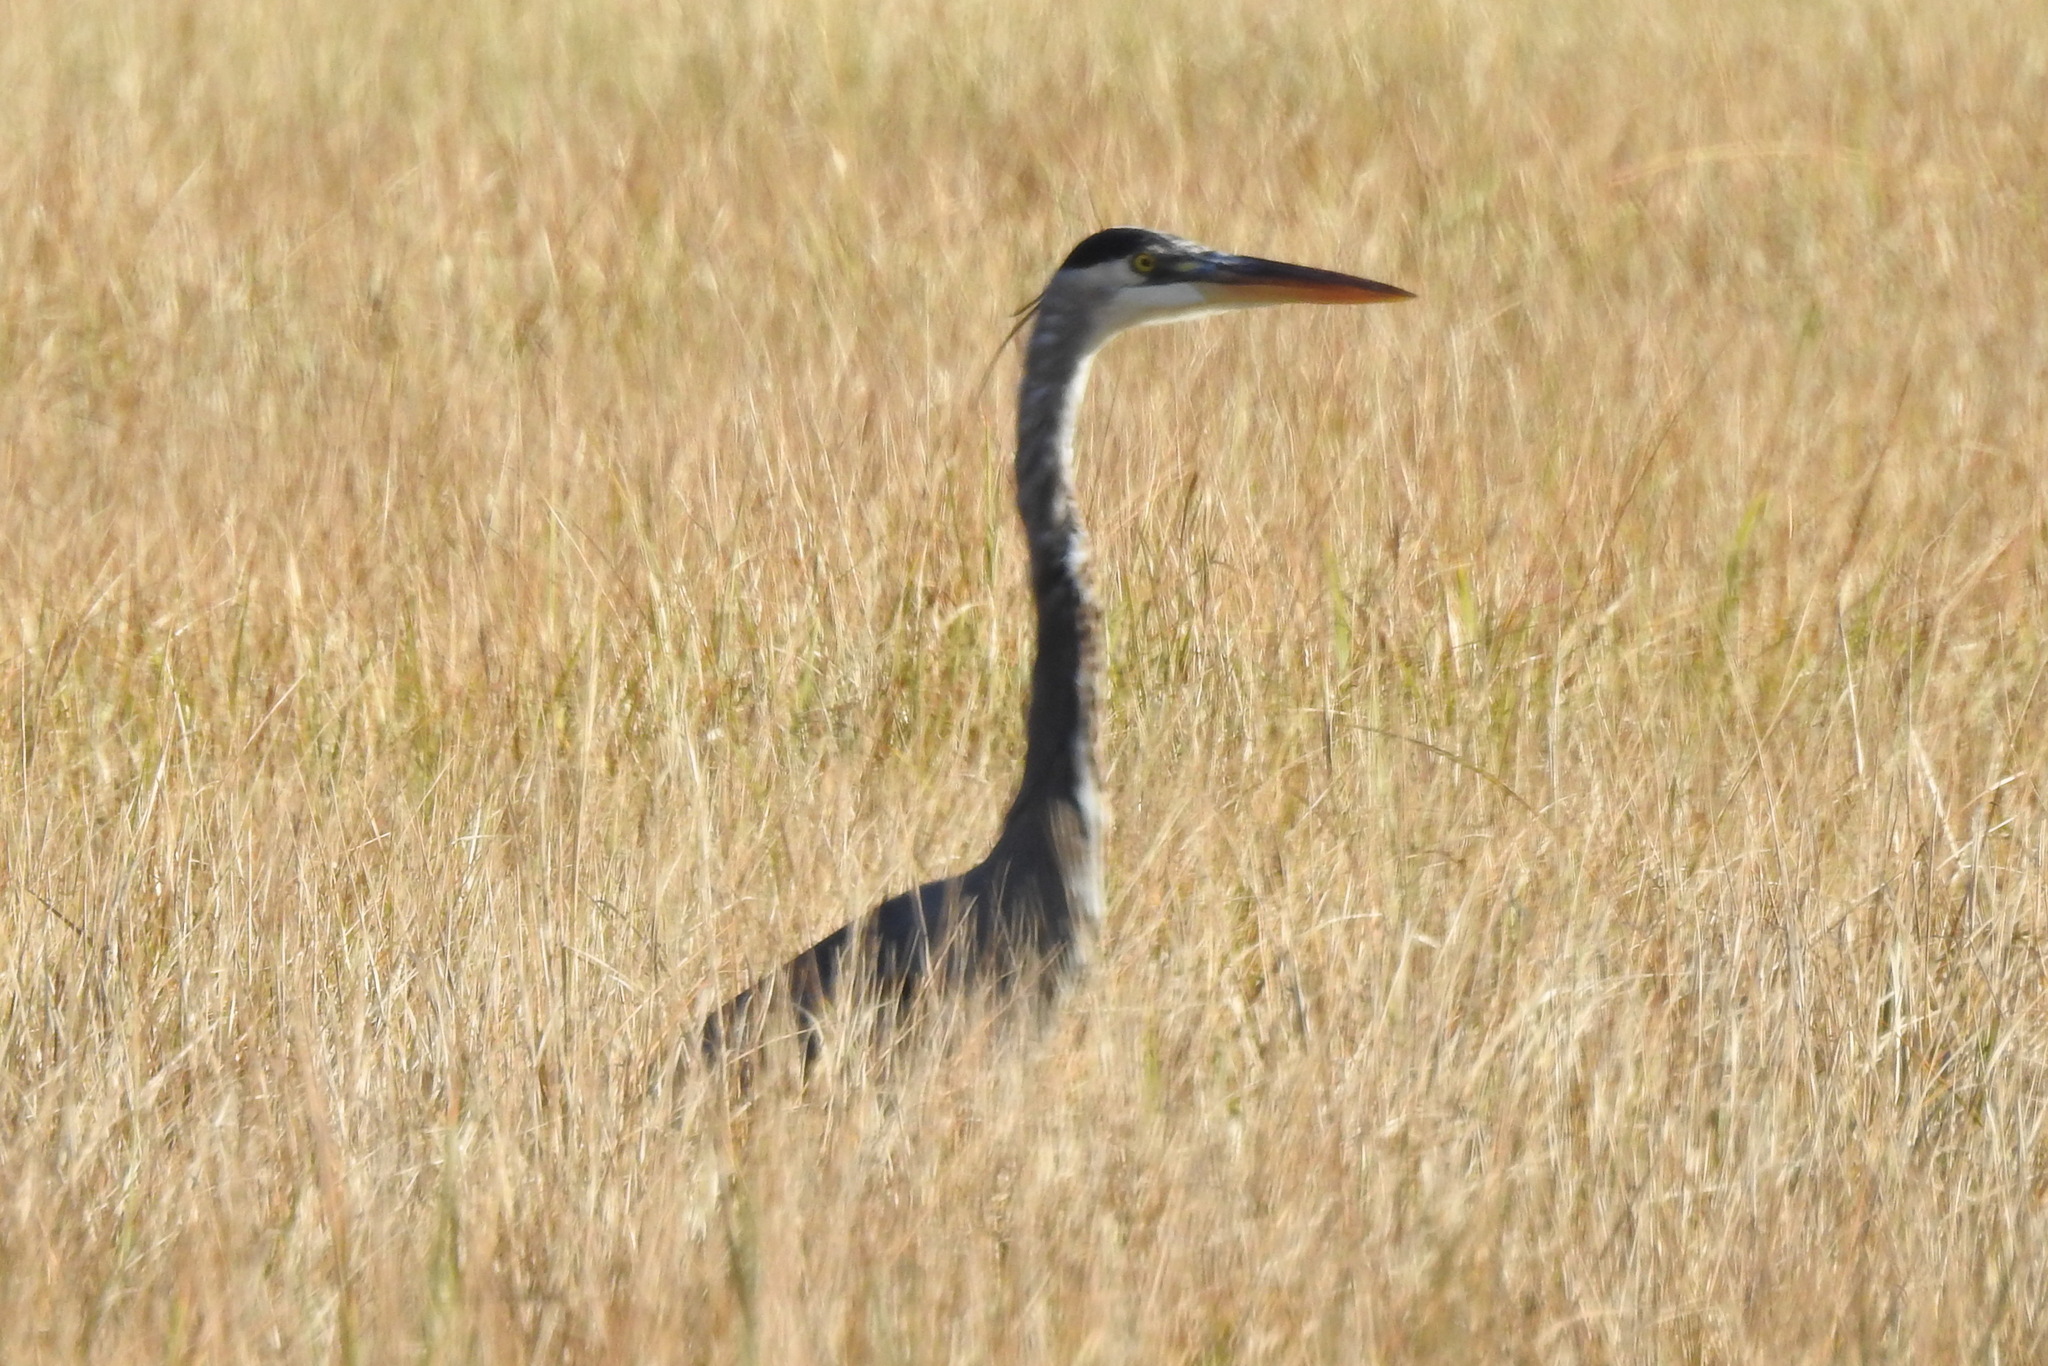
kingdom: Animalia
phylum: Chordata
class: Aves
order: Pelecaniformes
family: Ardeidae
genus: Ardea
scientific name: Ardea herodias
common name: Great blue heron
